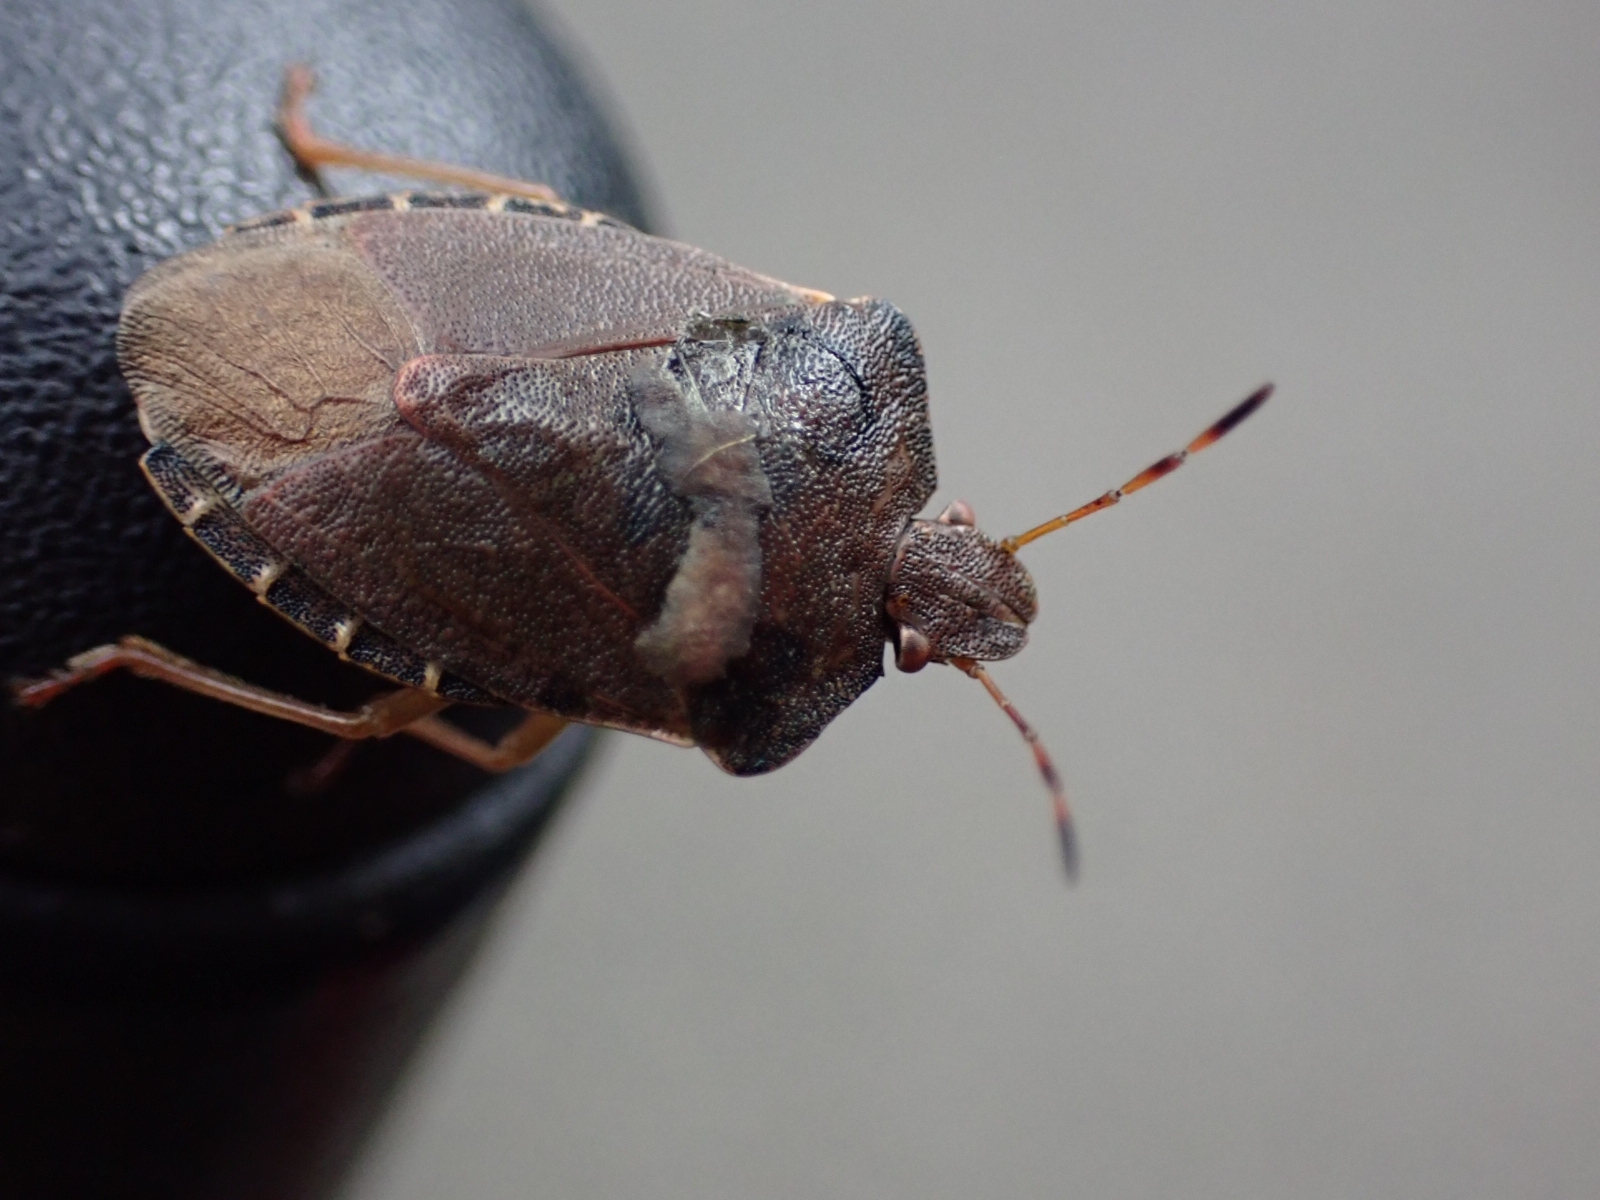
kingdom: Animalia
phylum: Arthropoda
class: Insecta
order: Hemiptera
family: Pentatomidae
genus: Palomena
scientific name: Palomena prasina
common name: Green shieldbug
